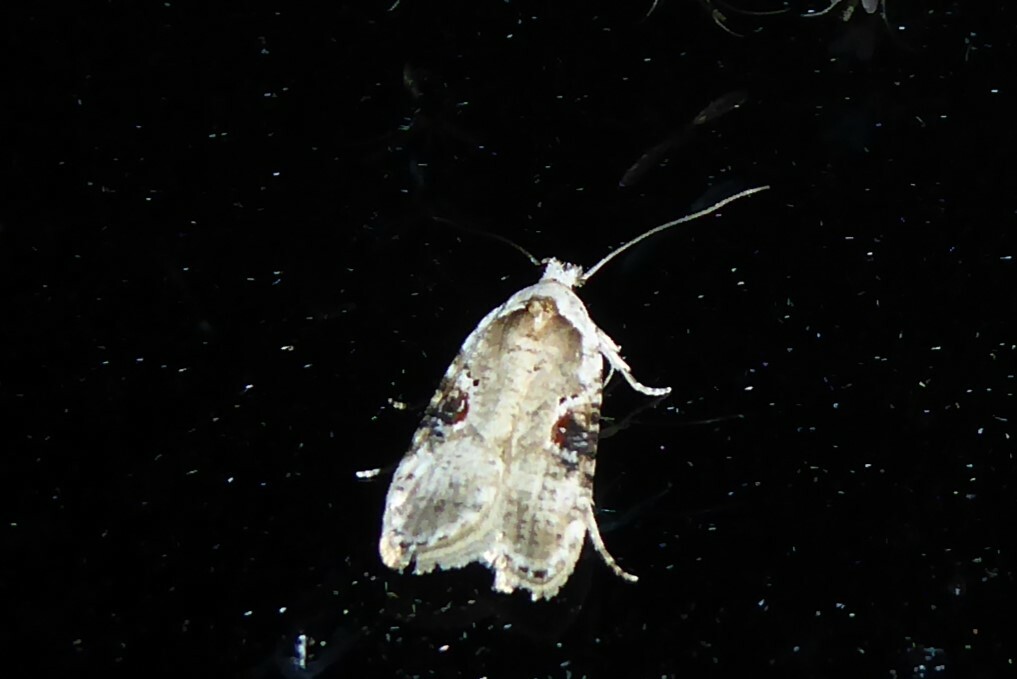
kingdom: Animalia
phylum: Arthropoda
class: Insecta
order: Lepidoptera
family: Depressariidae
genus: Agonopterix
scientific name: Agonopterix alstroemeriana
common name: Moth
